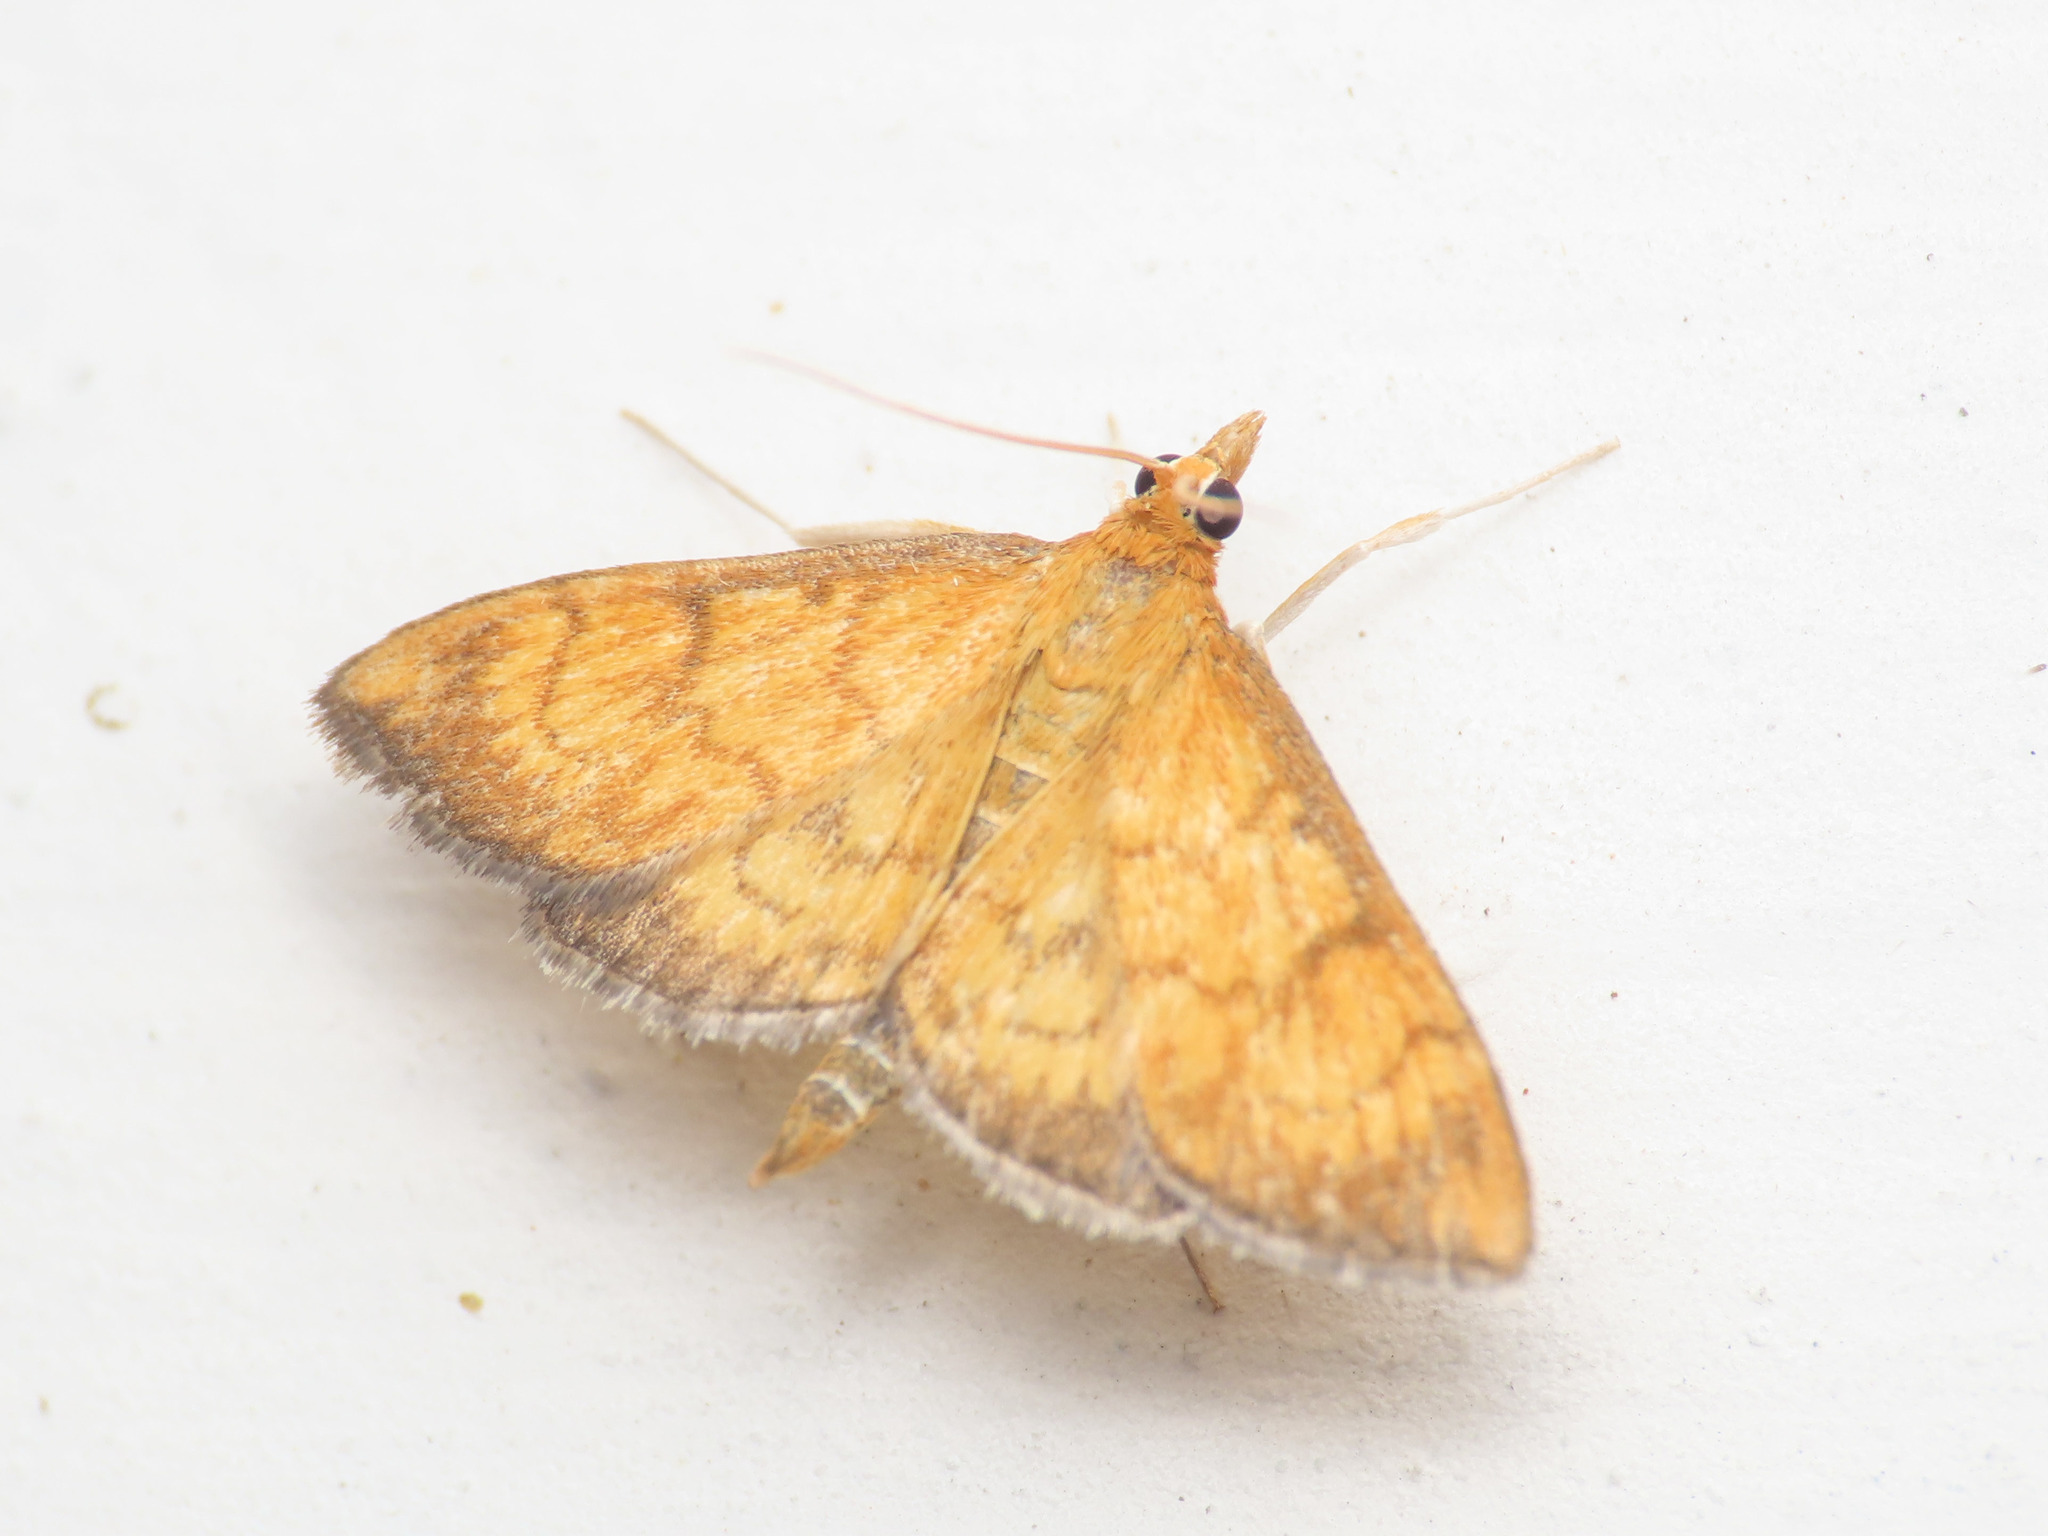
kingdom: Animalia
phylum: Arthropoda
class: Insecta
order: Lepidoptera
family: Crambidae
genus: Ecpyrrhorrhoe
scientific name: Ecpyrrhorrhoe rubiginalis
